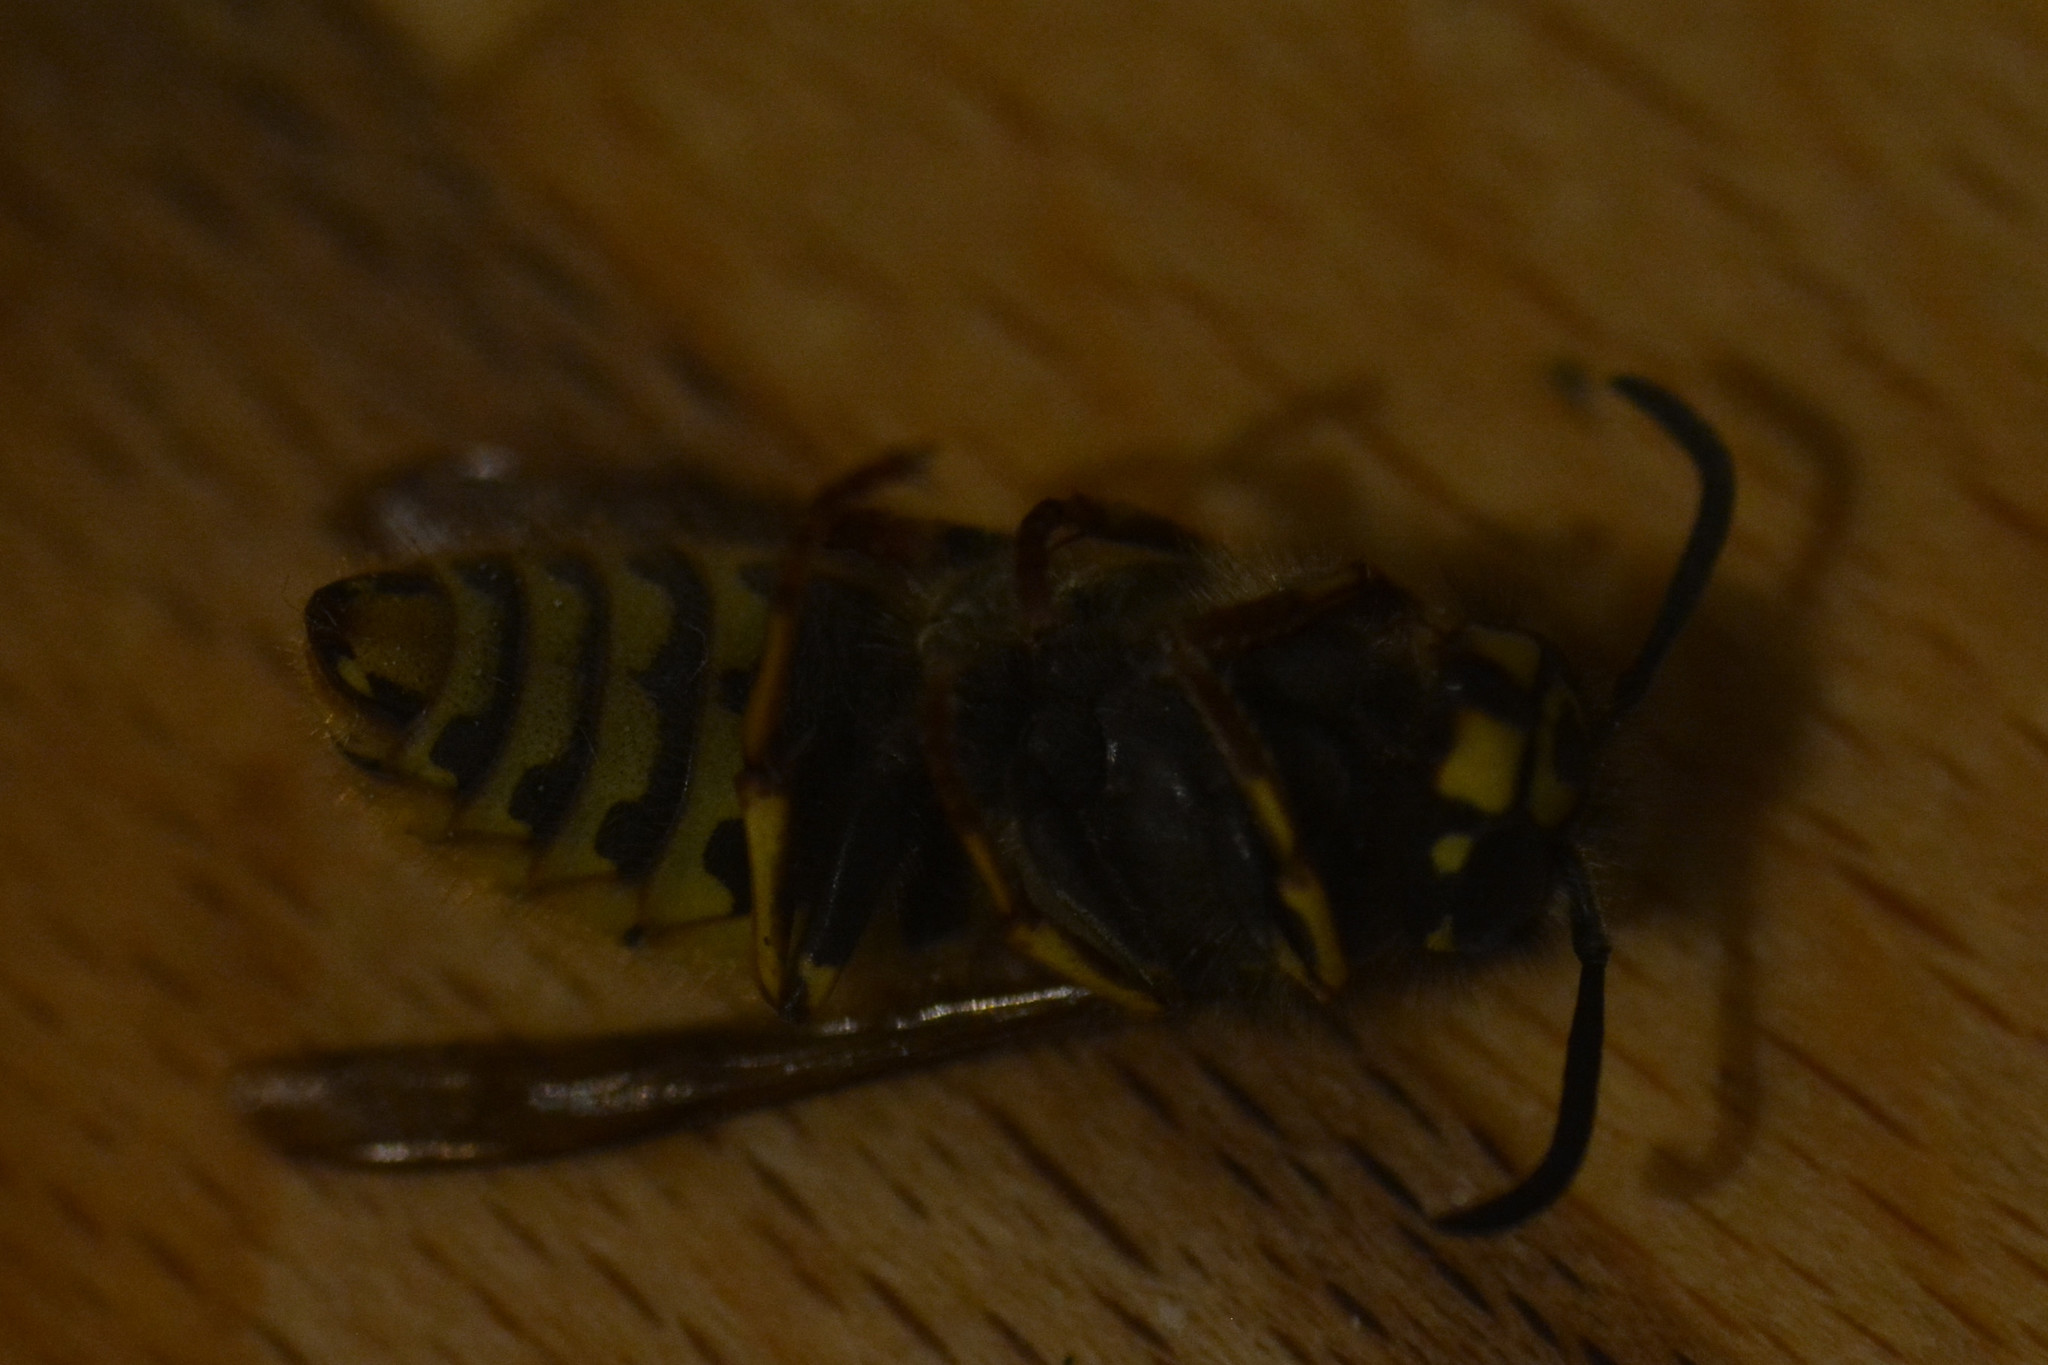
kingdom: Animalia
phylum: Arthropoda
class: Insecta
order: Hymenoptera
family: Vespidae
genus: Vespula
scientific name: Vespula vulgaris
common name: Common wasp
